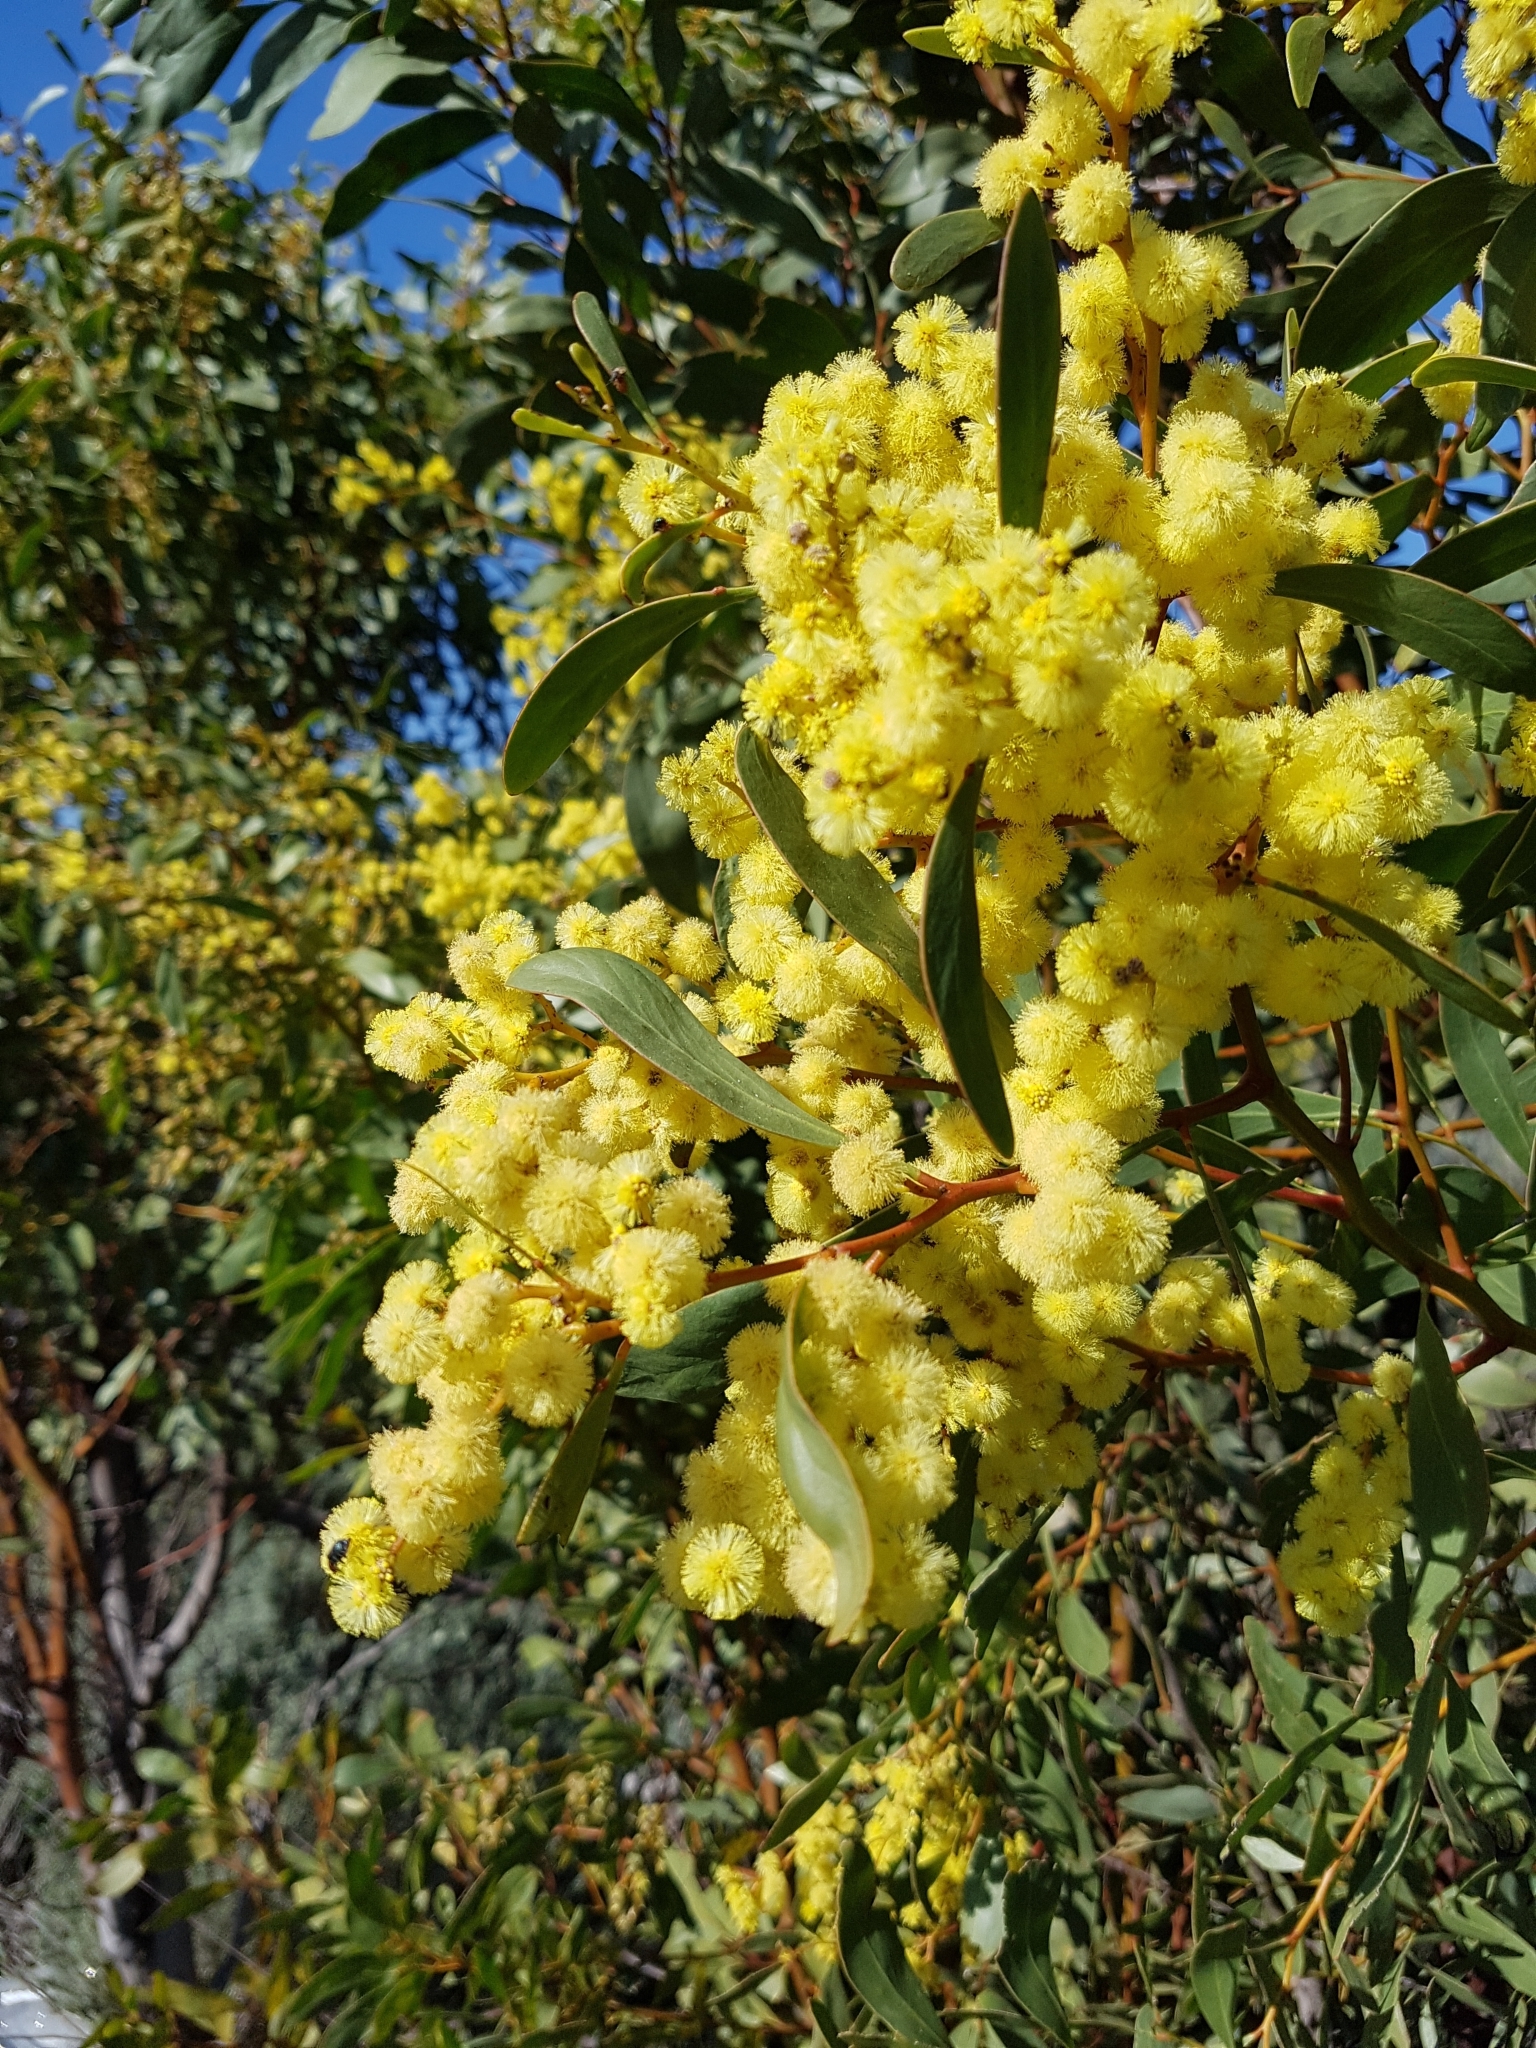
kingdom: Plantae
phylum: Tracheophyta
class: Magnoliopsida
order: Fabales
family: Fabaceae
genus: Acacia
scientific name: Acacia pycnantha
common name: Golden wattle
